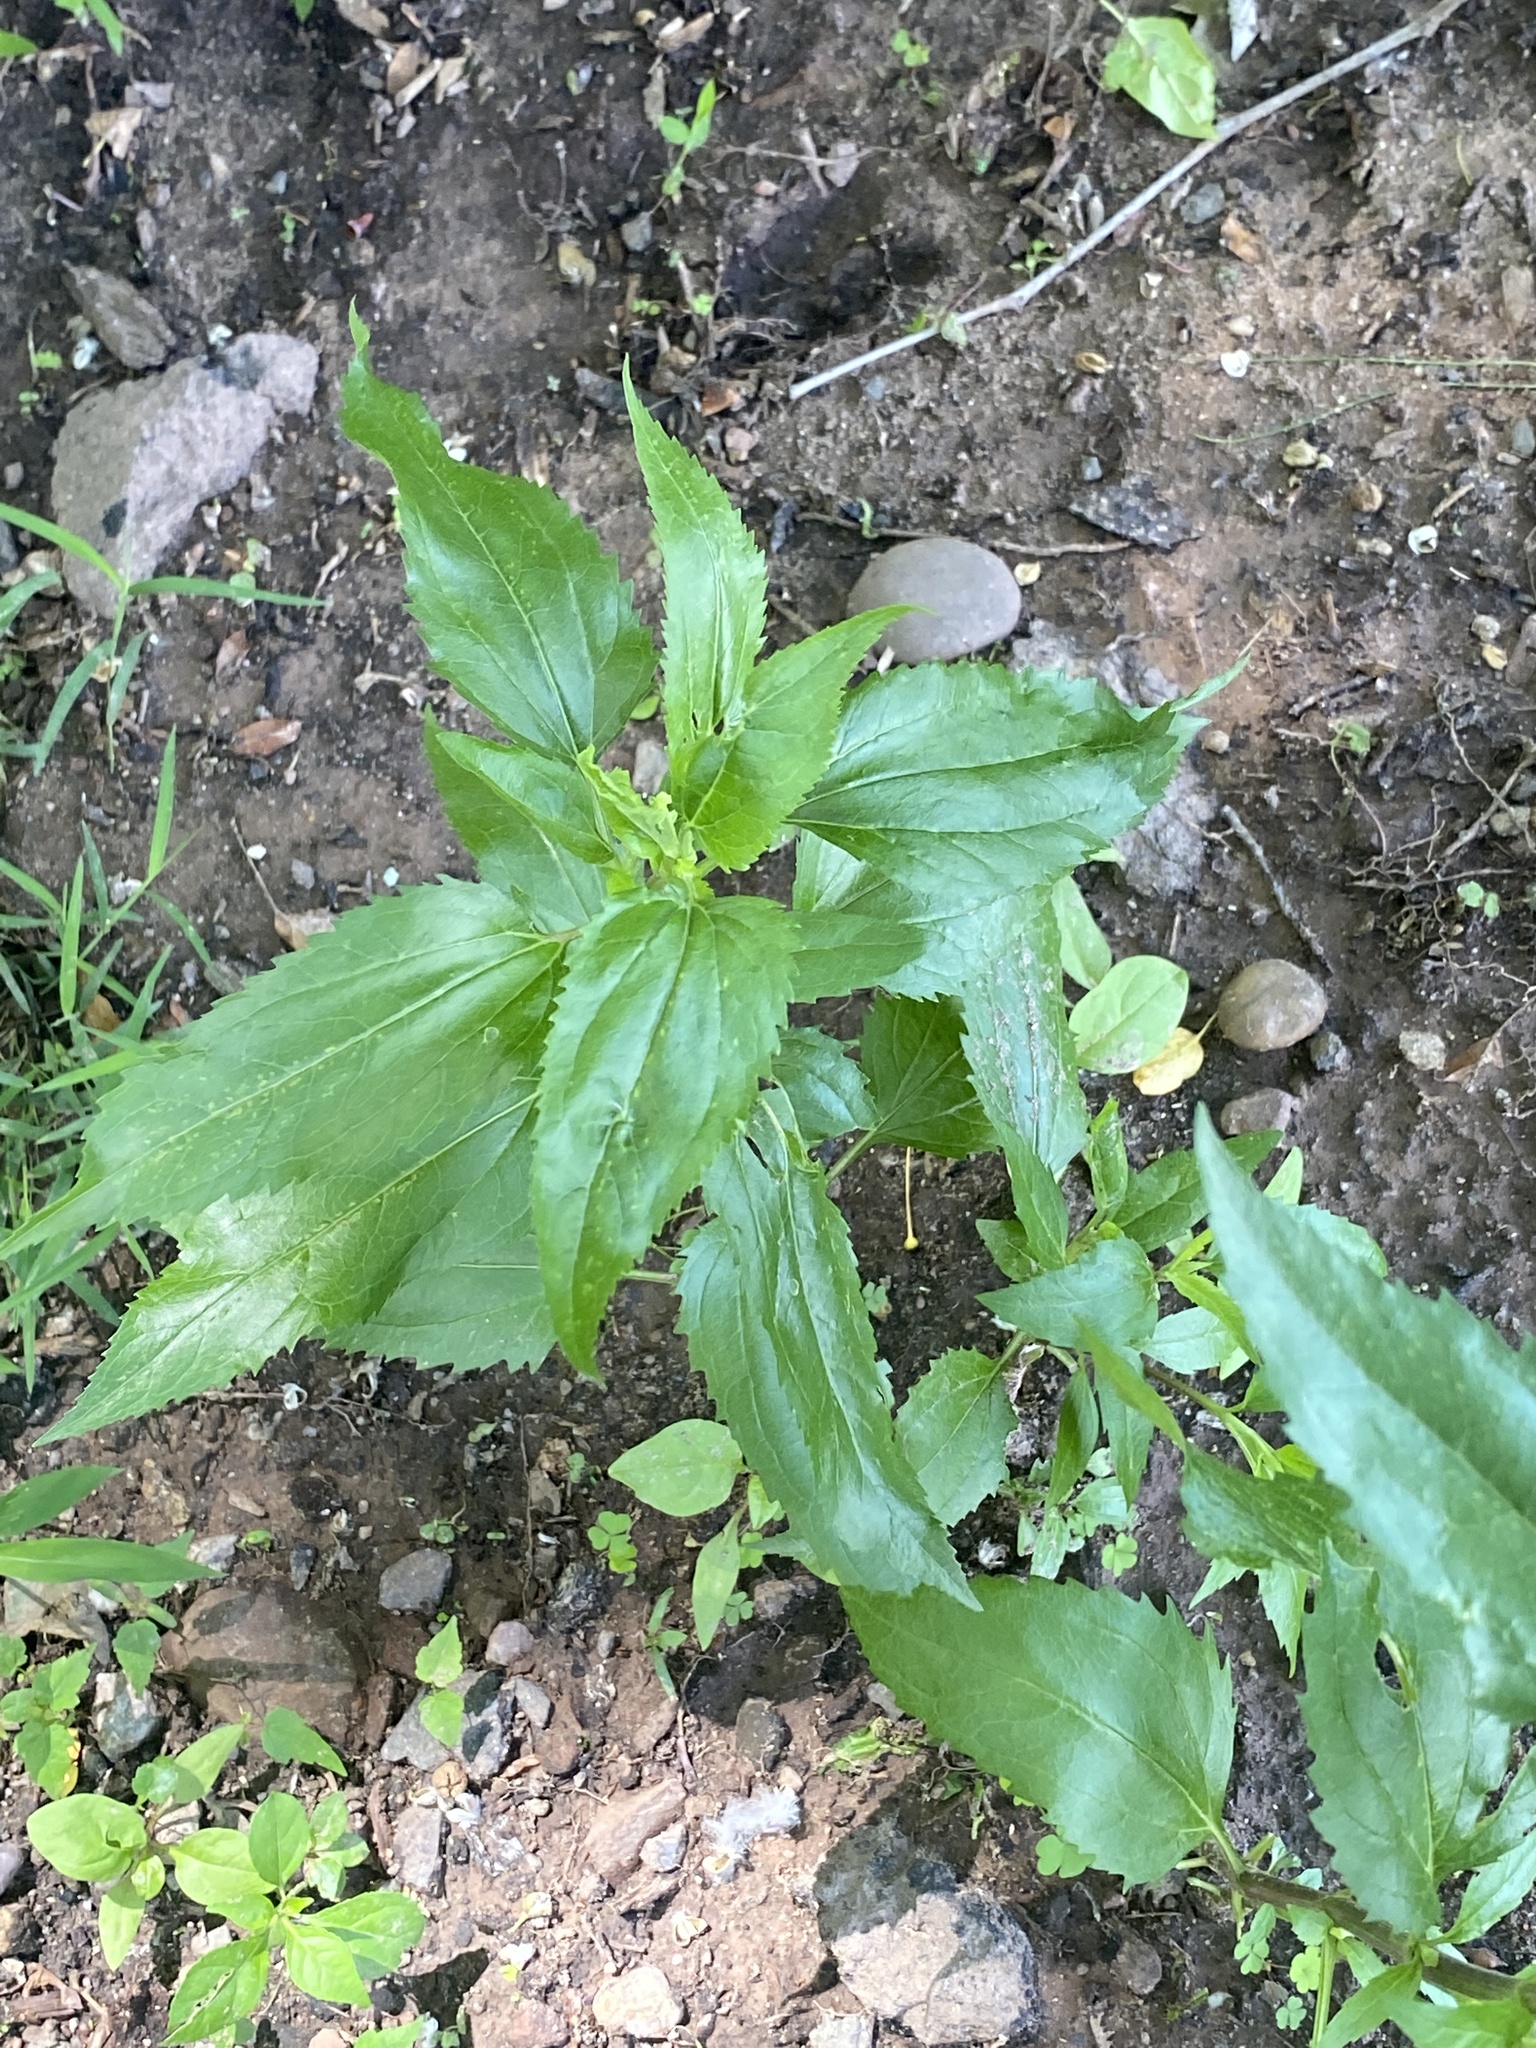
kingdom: Plantae
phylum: Tracheophyta
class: Magnoliopsida
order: Asterales
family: Asteraceae
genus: Eupatorium
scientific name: Eupatorium serotinum
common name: Late boneset
